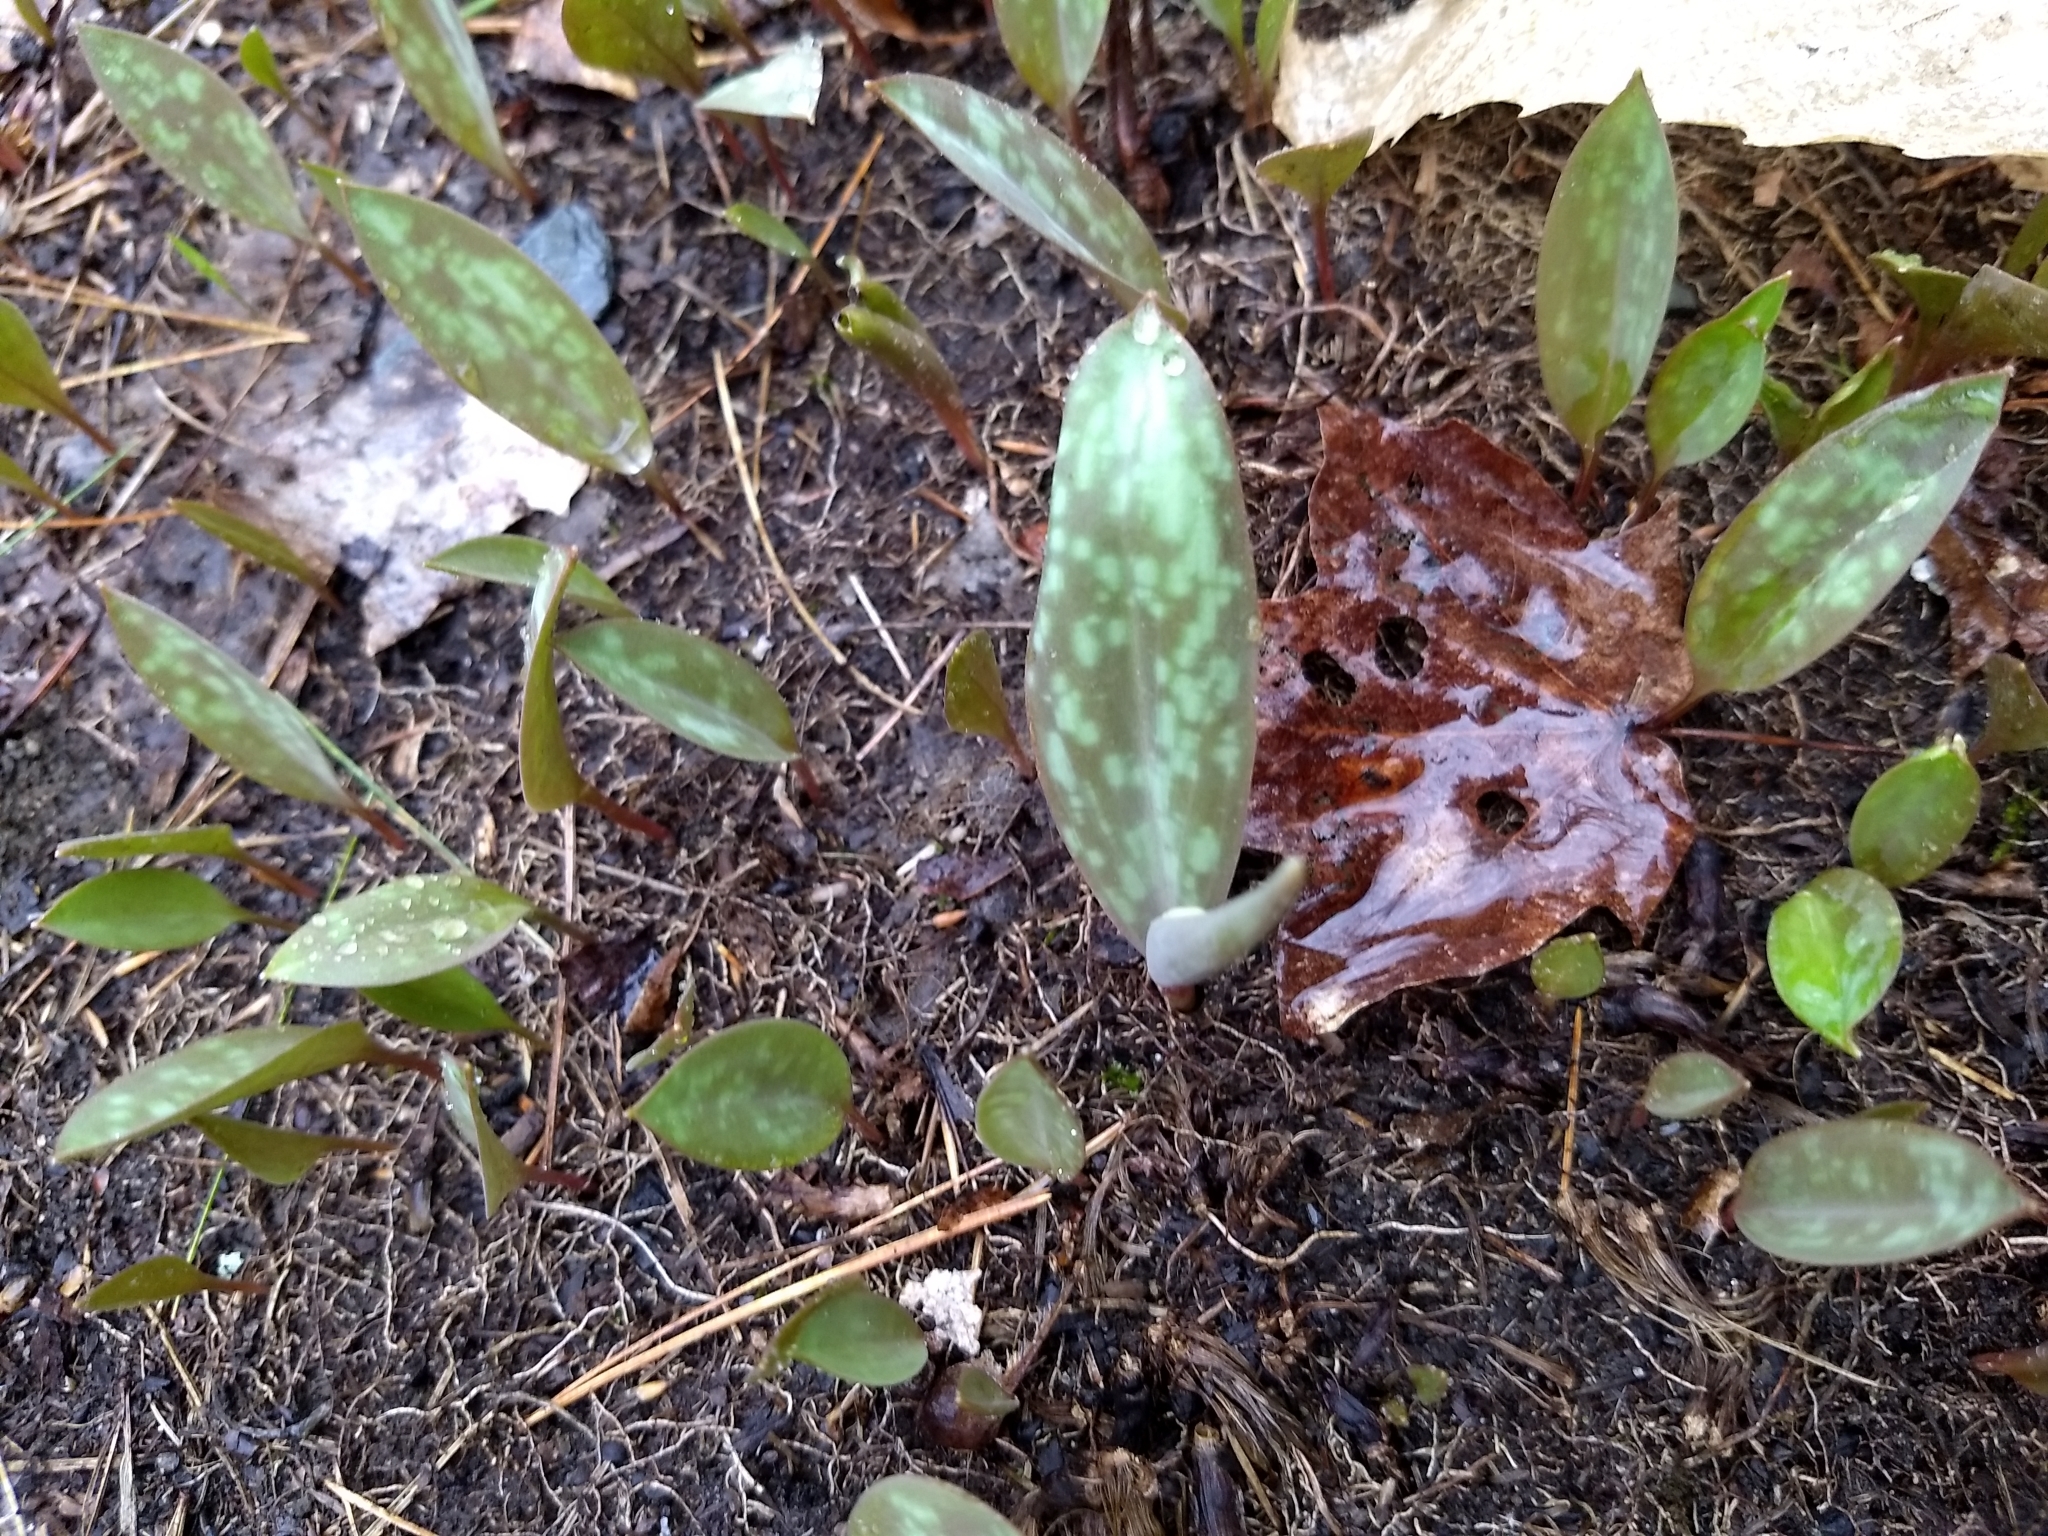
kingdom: Plantae
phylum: Tracheophyta
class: Liliopsida
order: Liliales
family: Liliaceae
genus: Erythronium
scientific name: Erythronium americanum
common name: Yellow adder's-tongue
